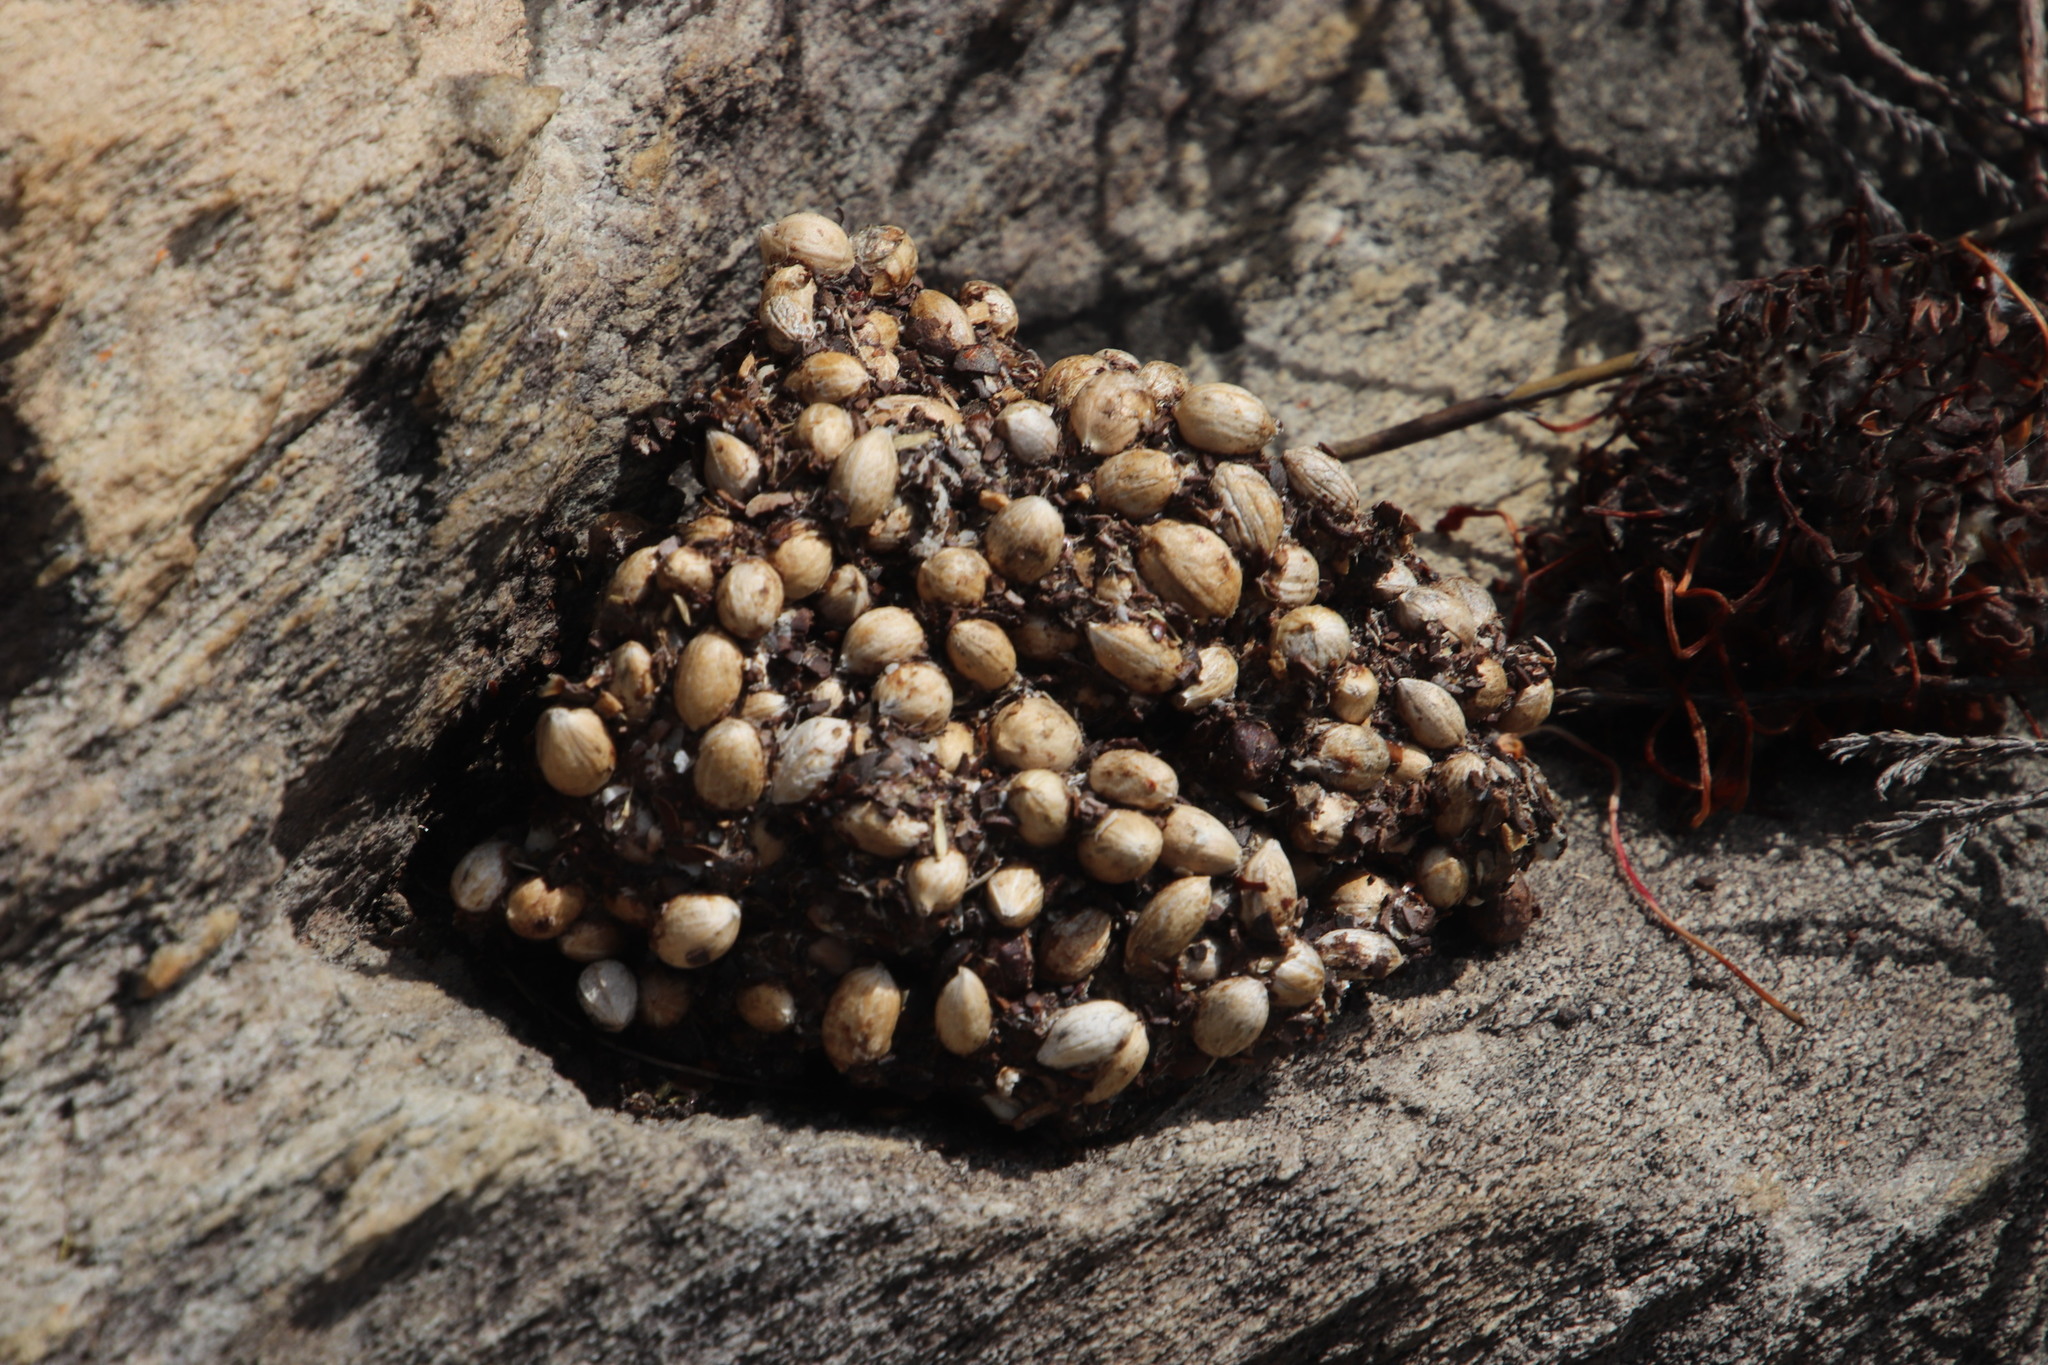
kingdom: Animalia
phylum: Chordata
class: Mammalia
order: Primates
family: Cercopithecidae
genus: Papio
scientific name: Papio ursinus
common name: Chacma baboon
